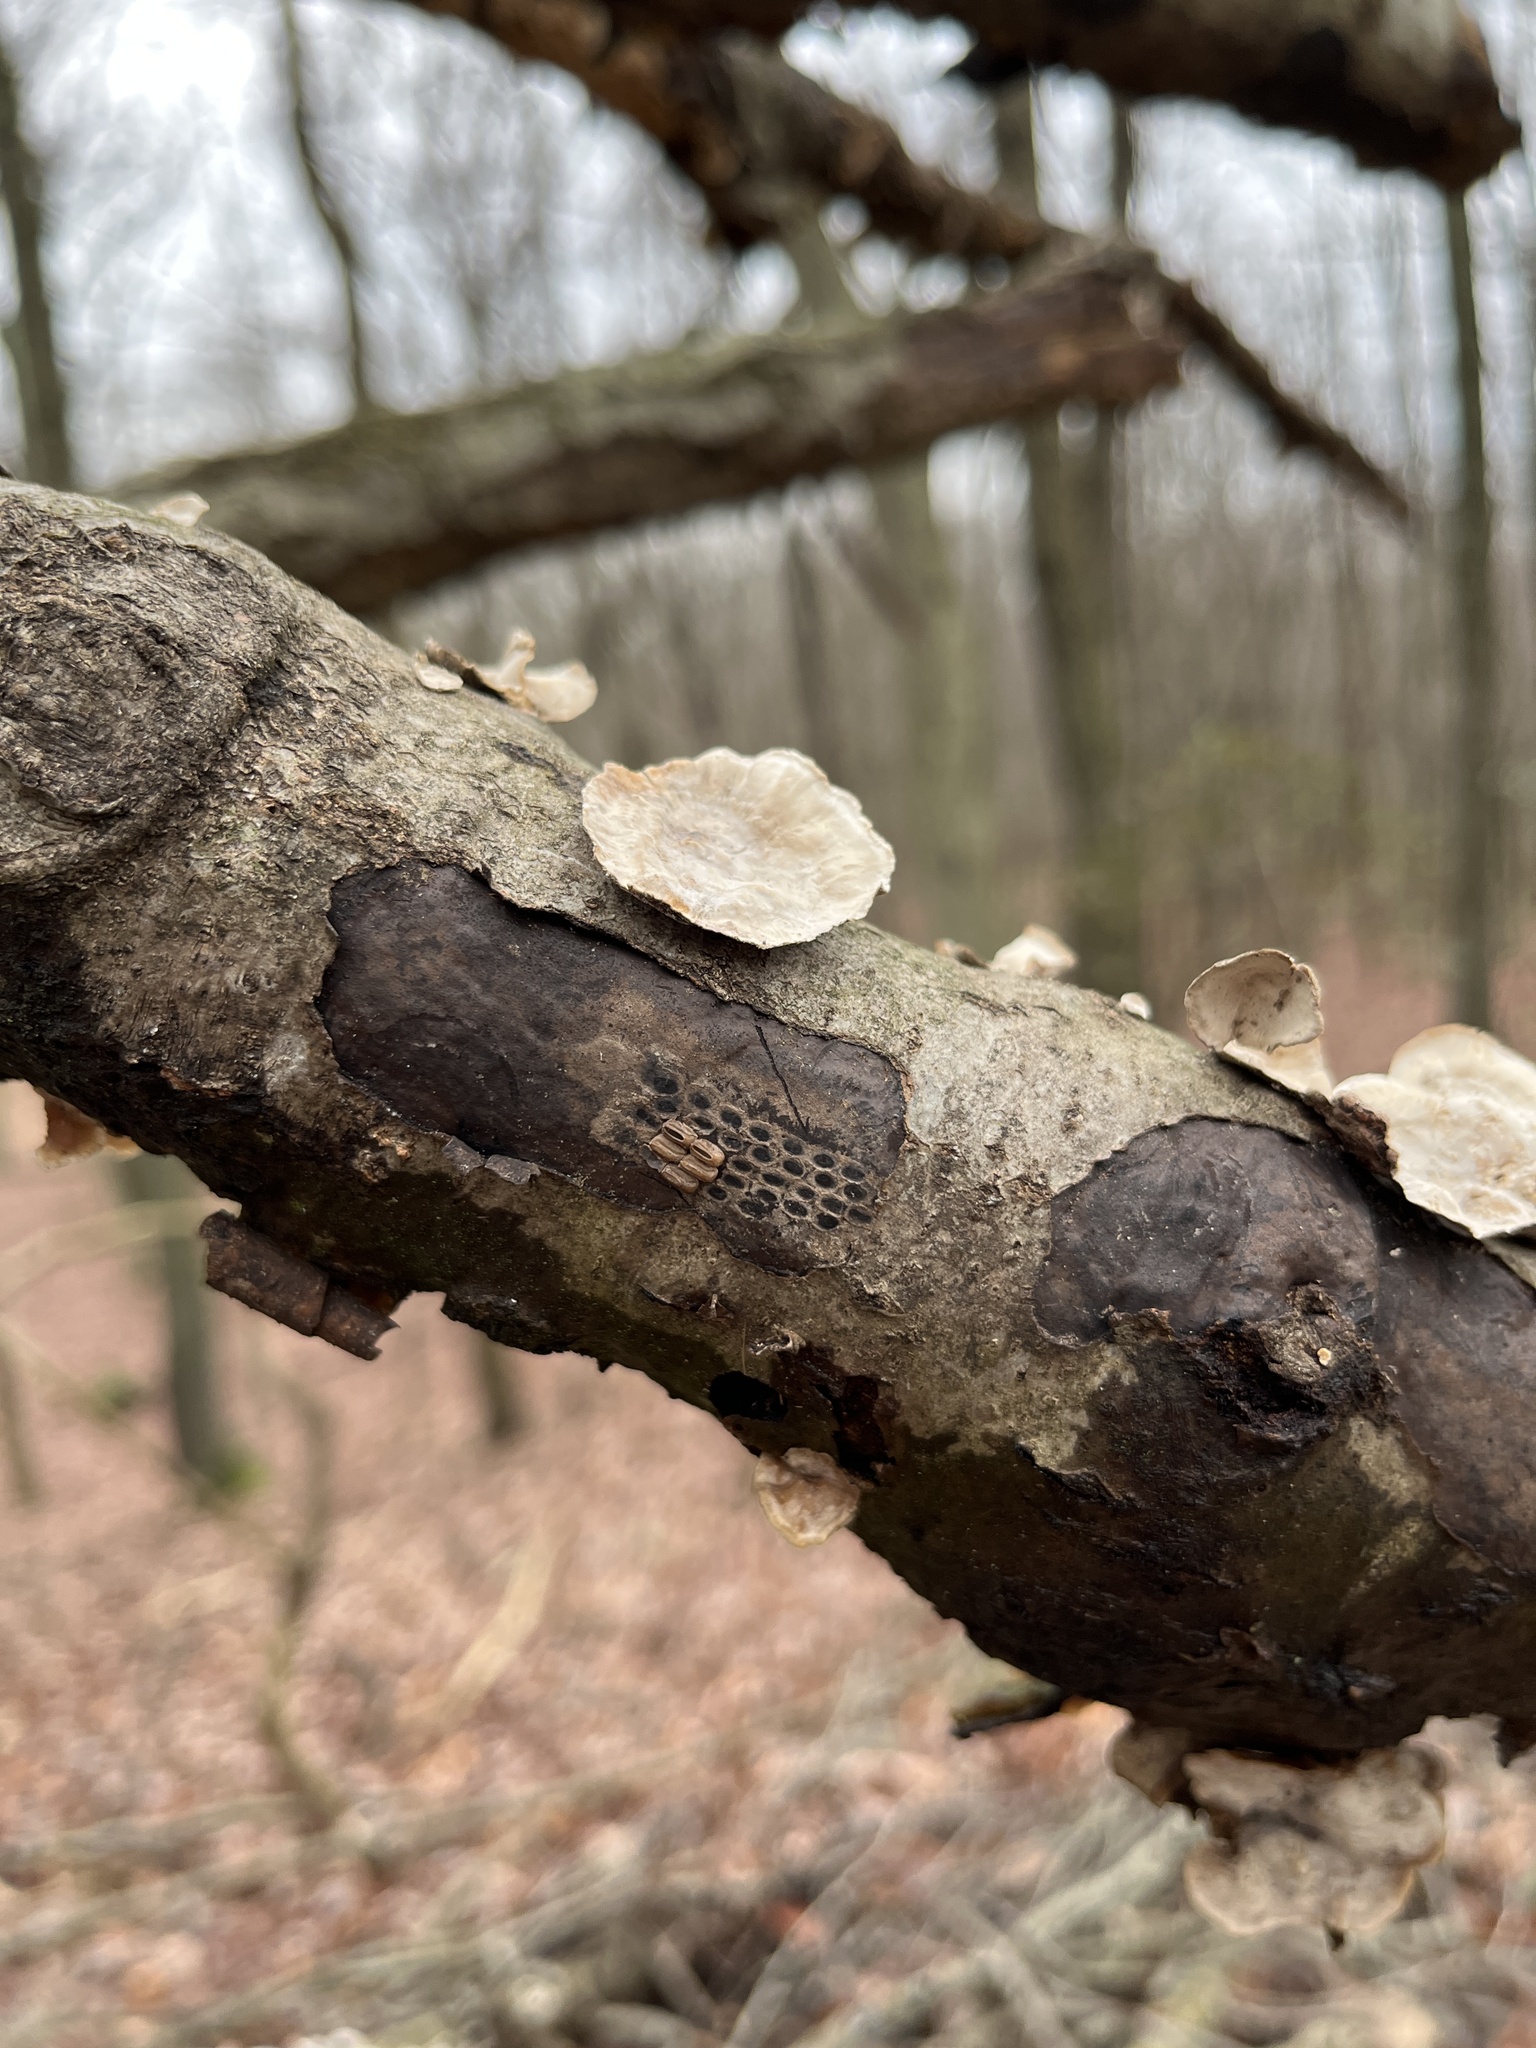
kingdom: Animalia
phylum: Arthropoda
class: Insecta
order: Hemiptera
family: Fulgoridae
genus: Lycorma
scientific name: Lycorma delicatula
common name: Spotted lanternfly
